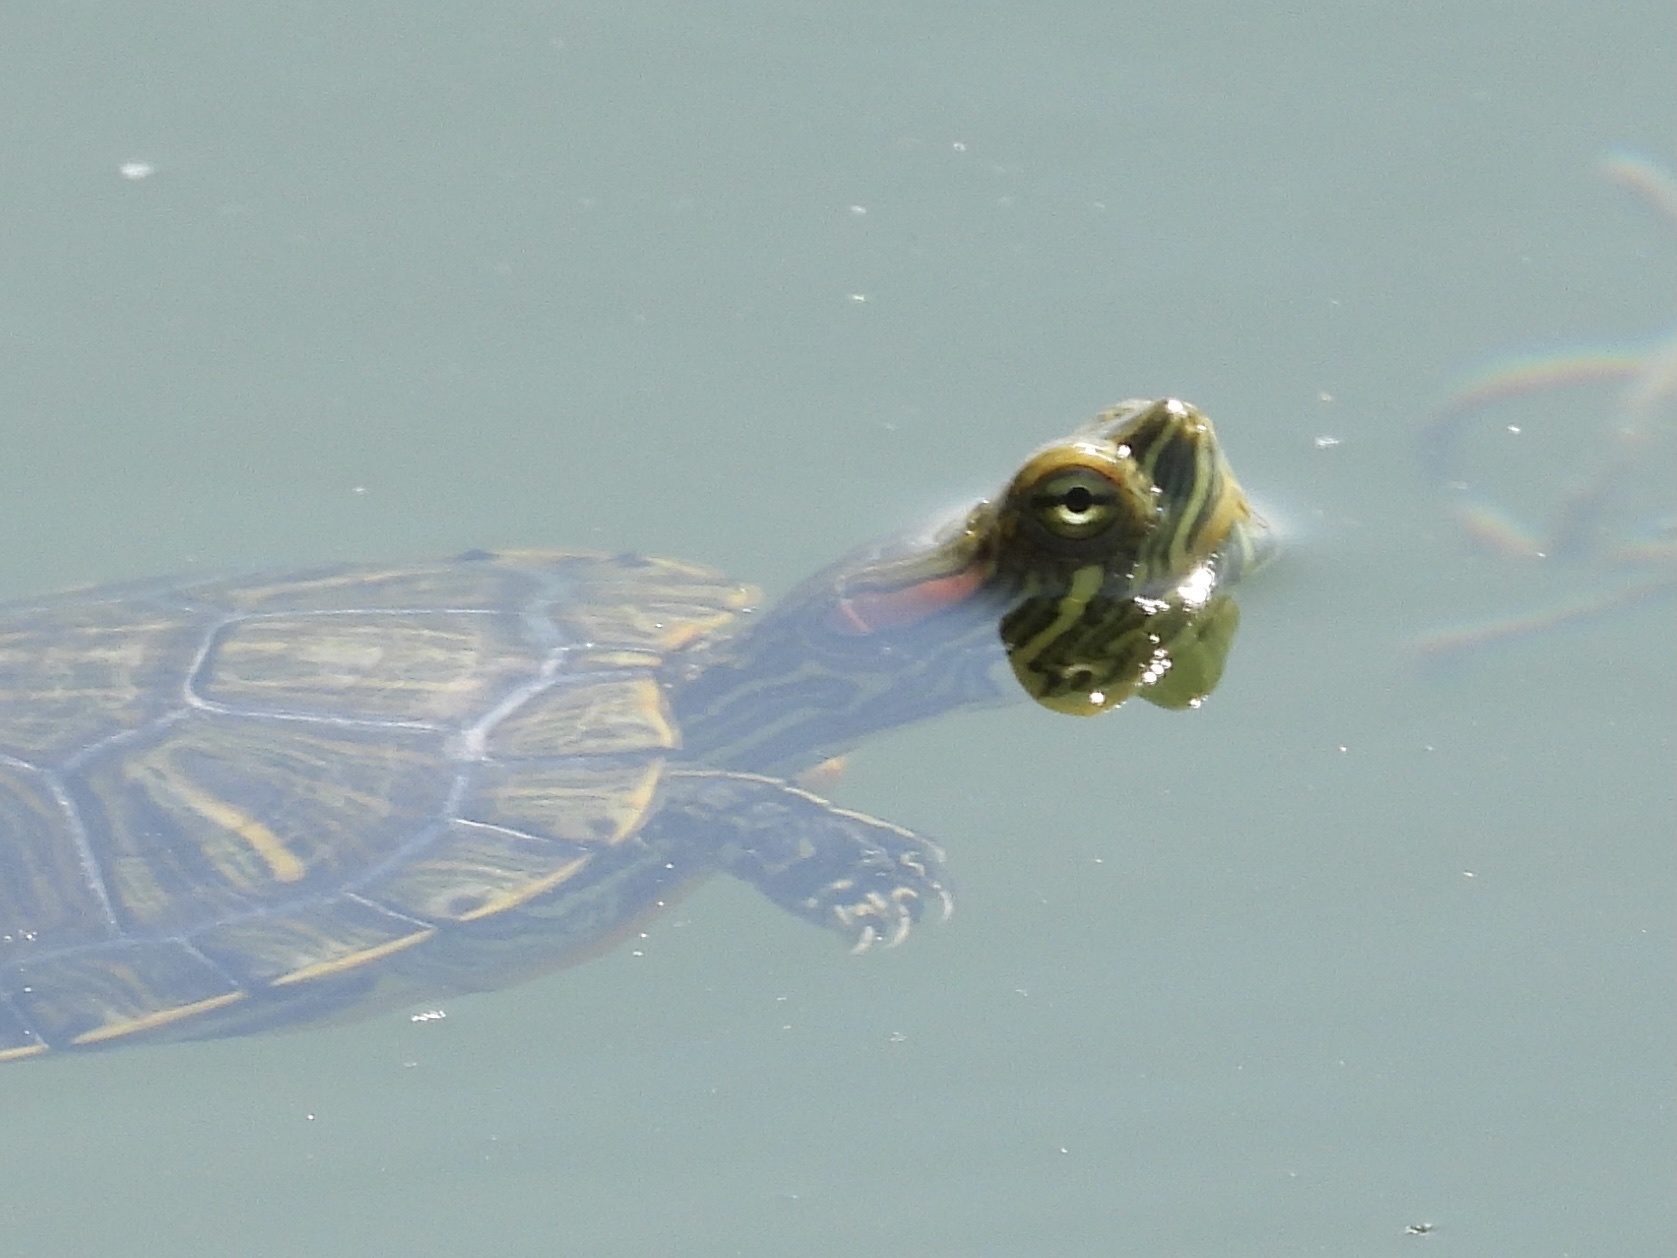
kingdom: Animalia
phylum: Chordata
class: Testudines
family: Emydidae
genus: Trachemys
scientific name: Trachemys scripta
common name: Slider
